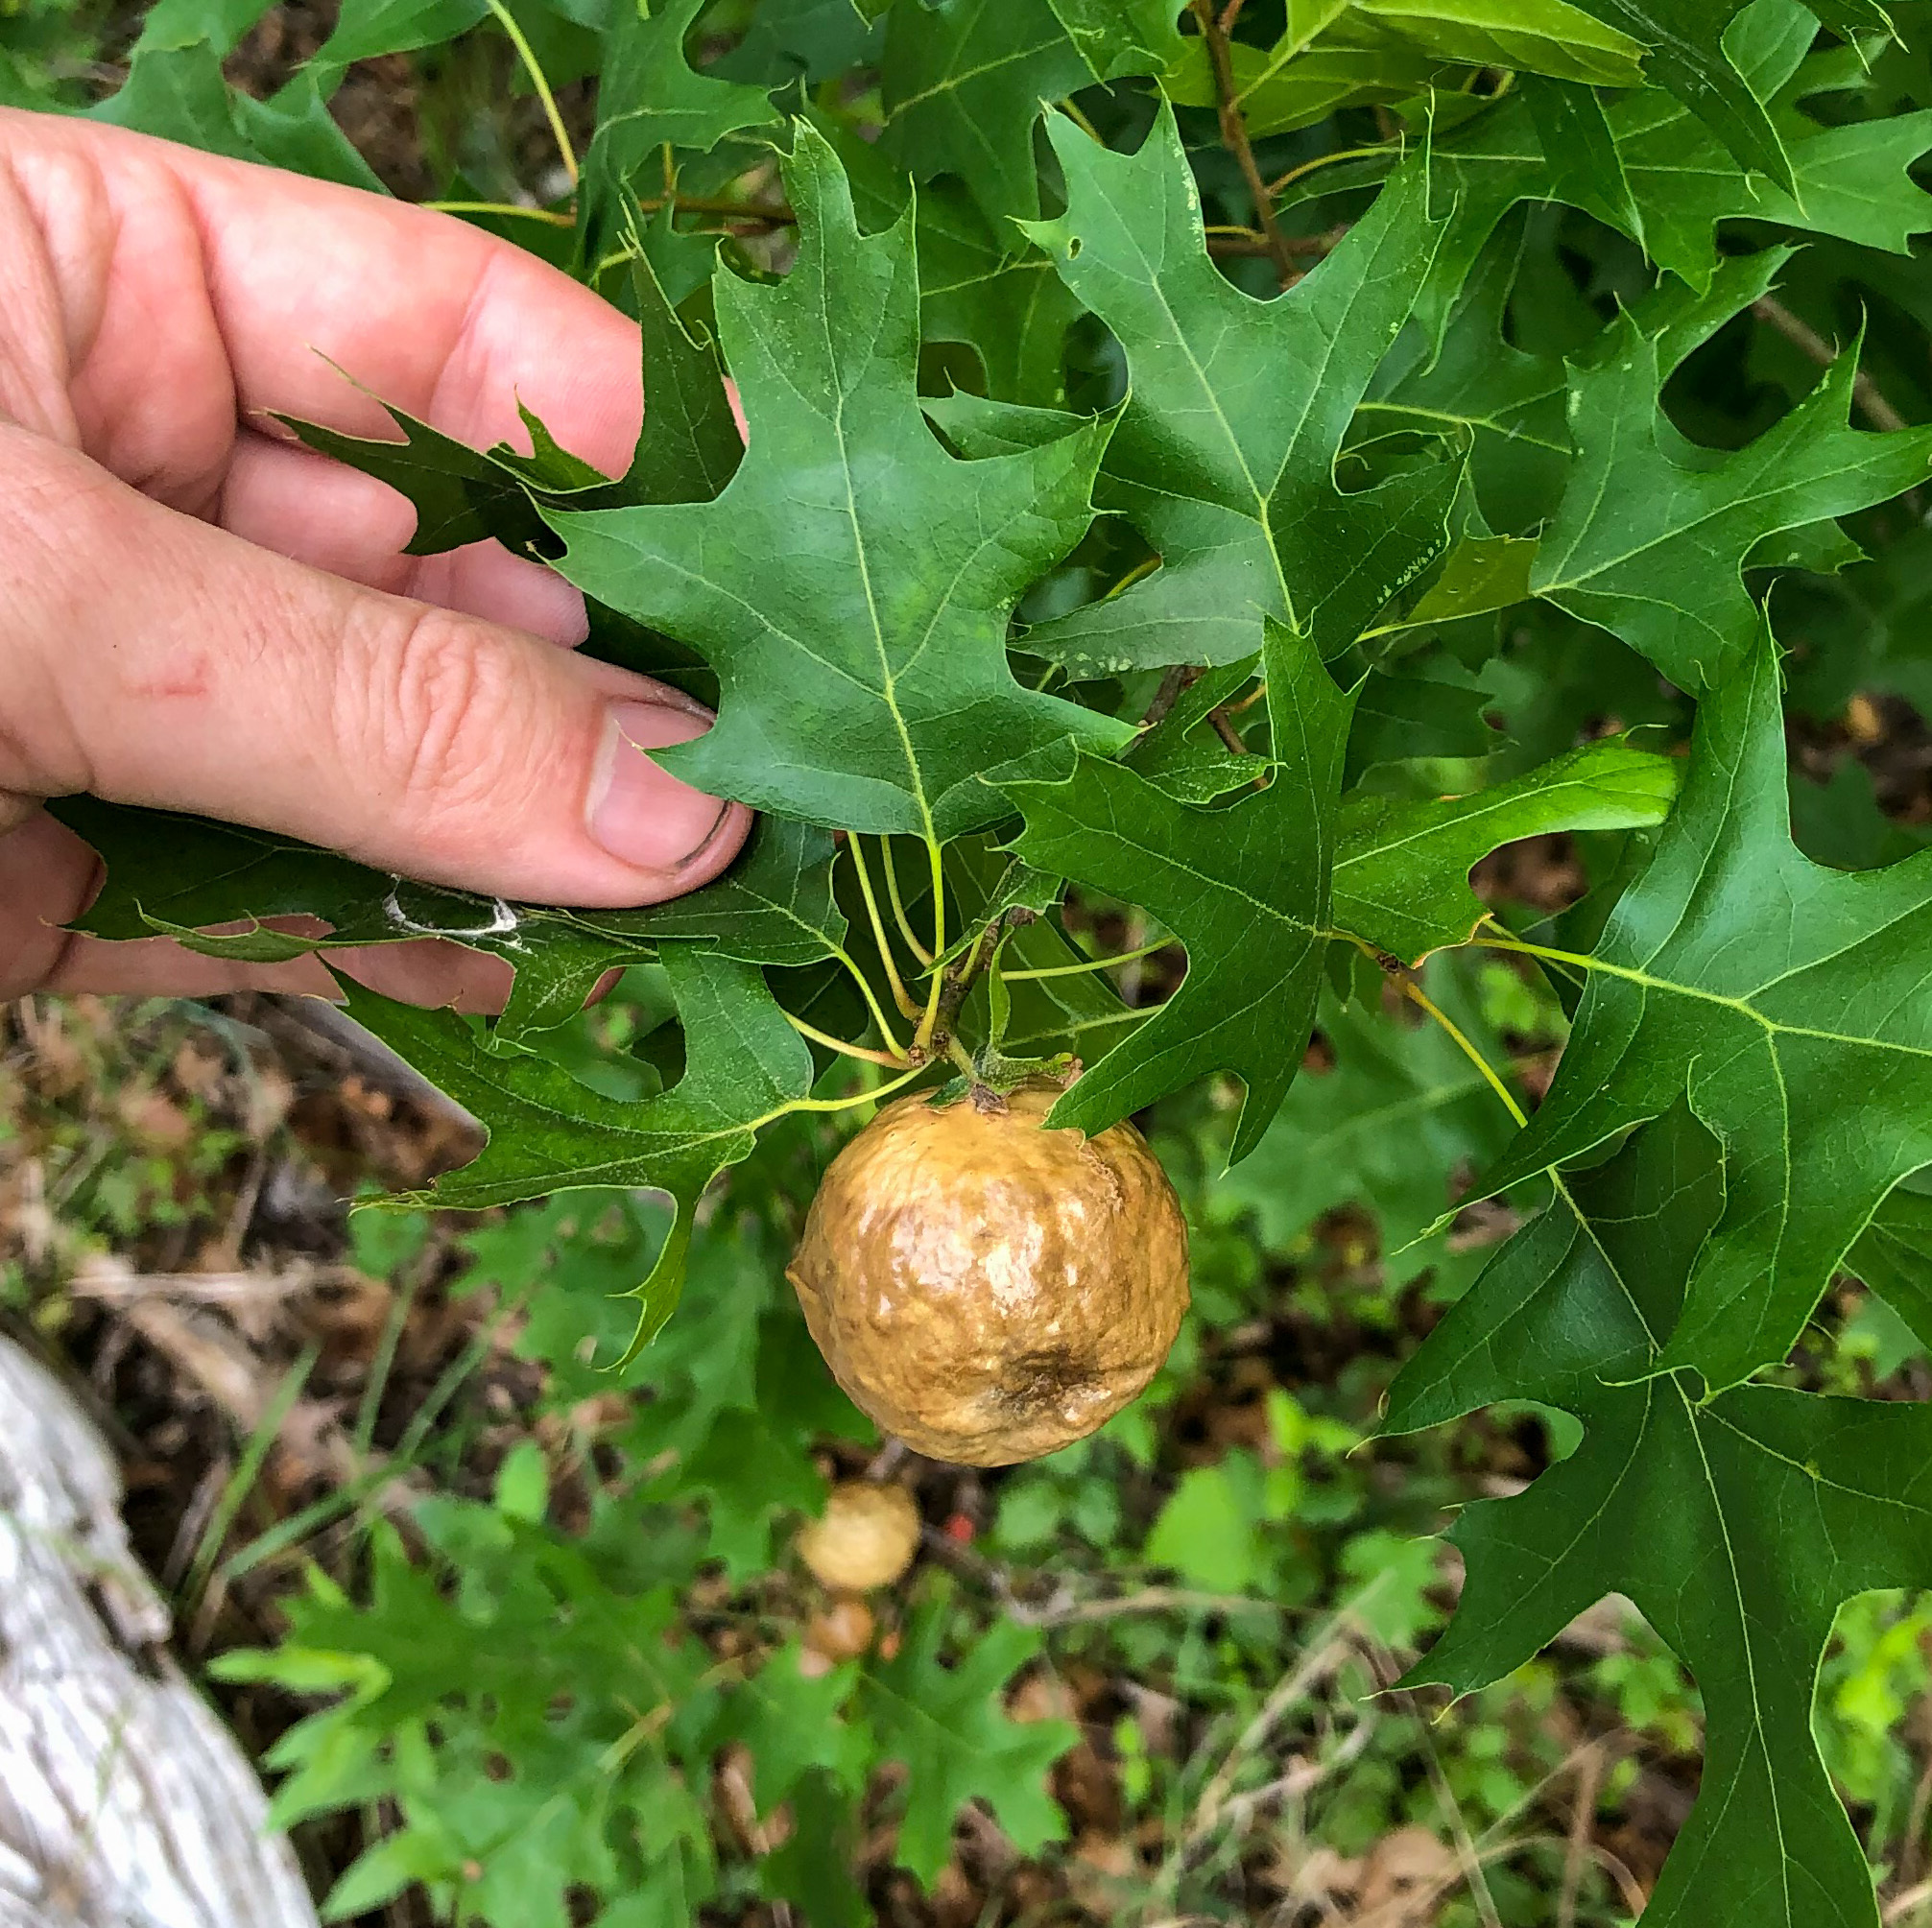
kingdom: Animalia
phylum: Arthropoda
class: Insecta
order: Hymenoptera
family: Cynipidae
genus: Amphibolips
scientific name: Amphibolips
